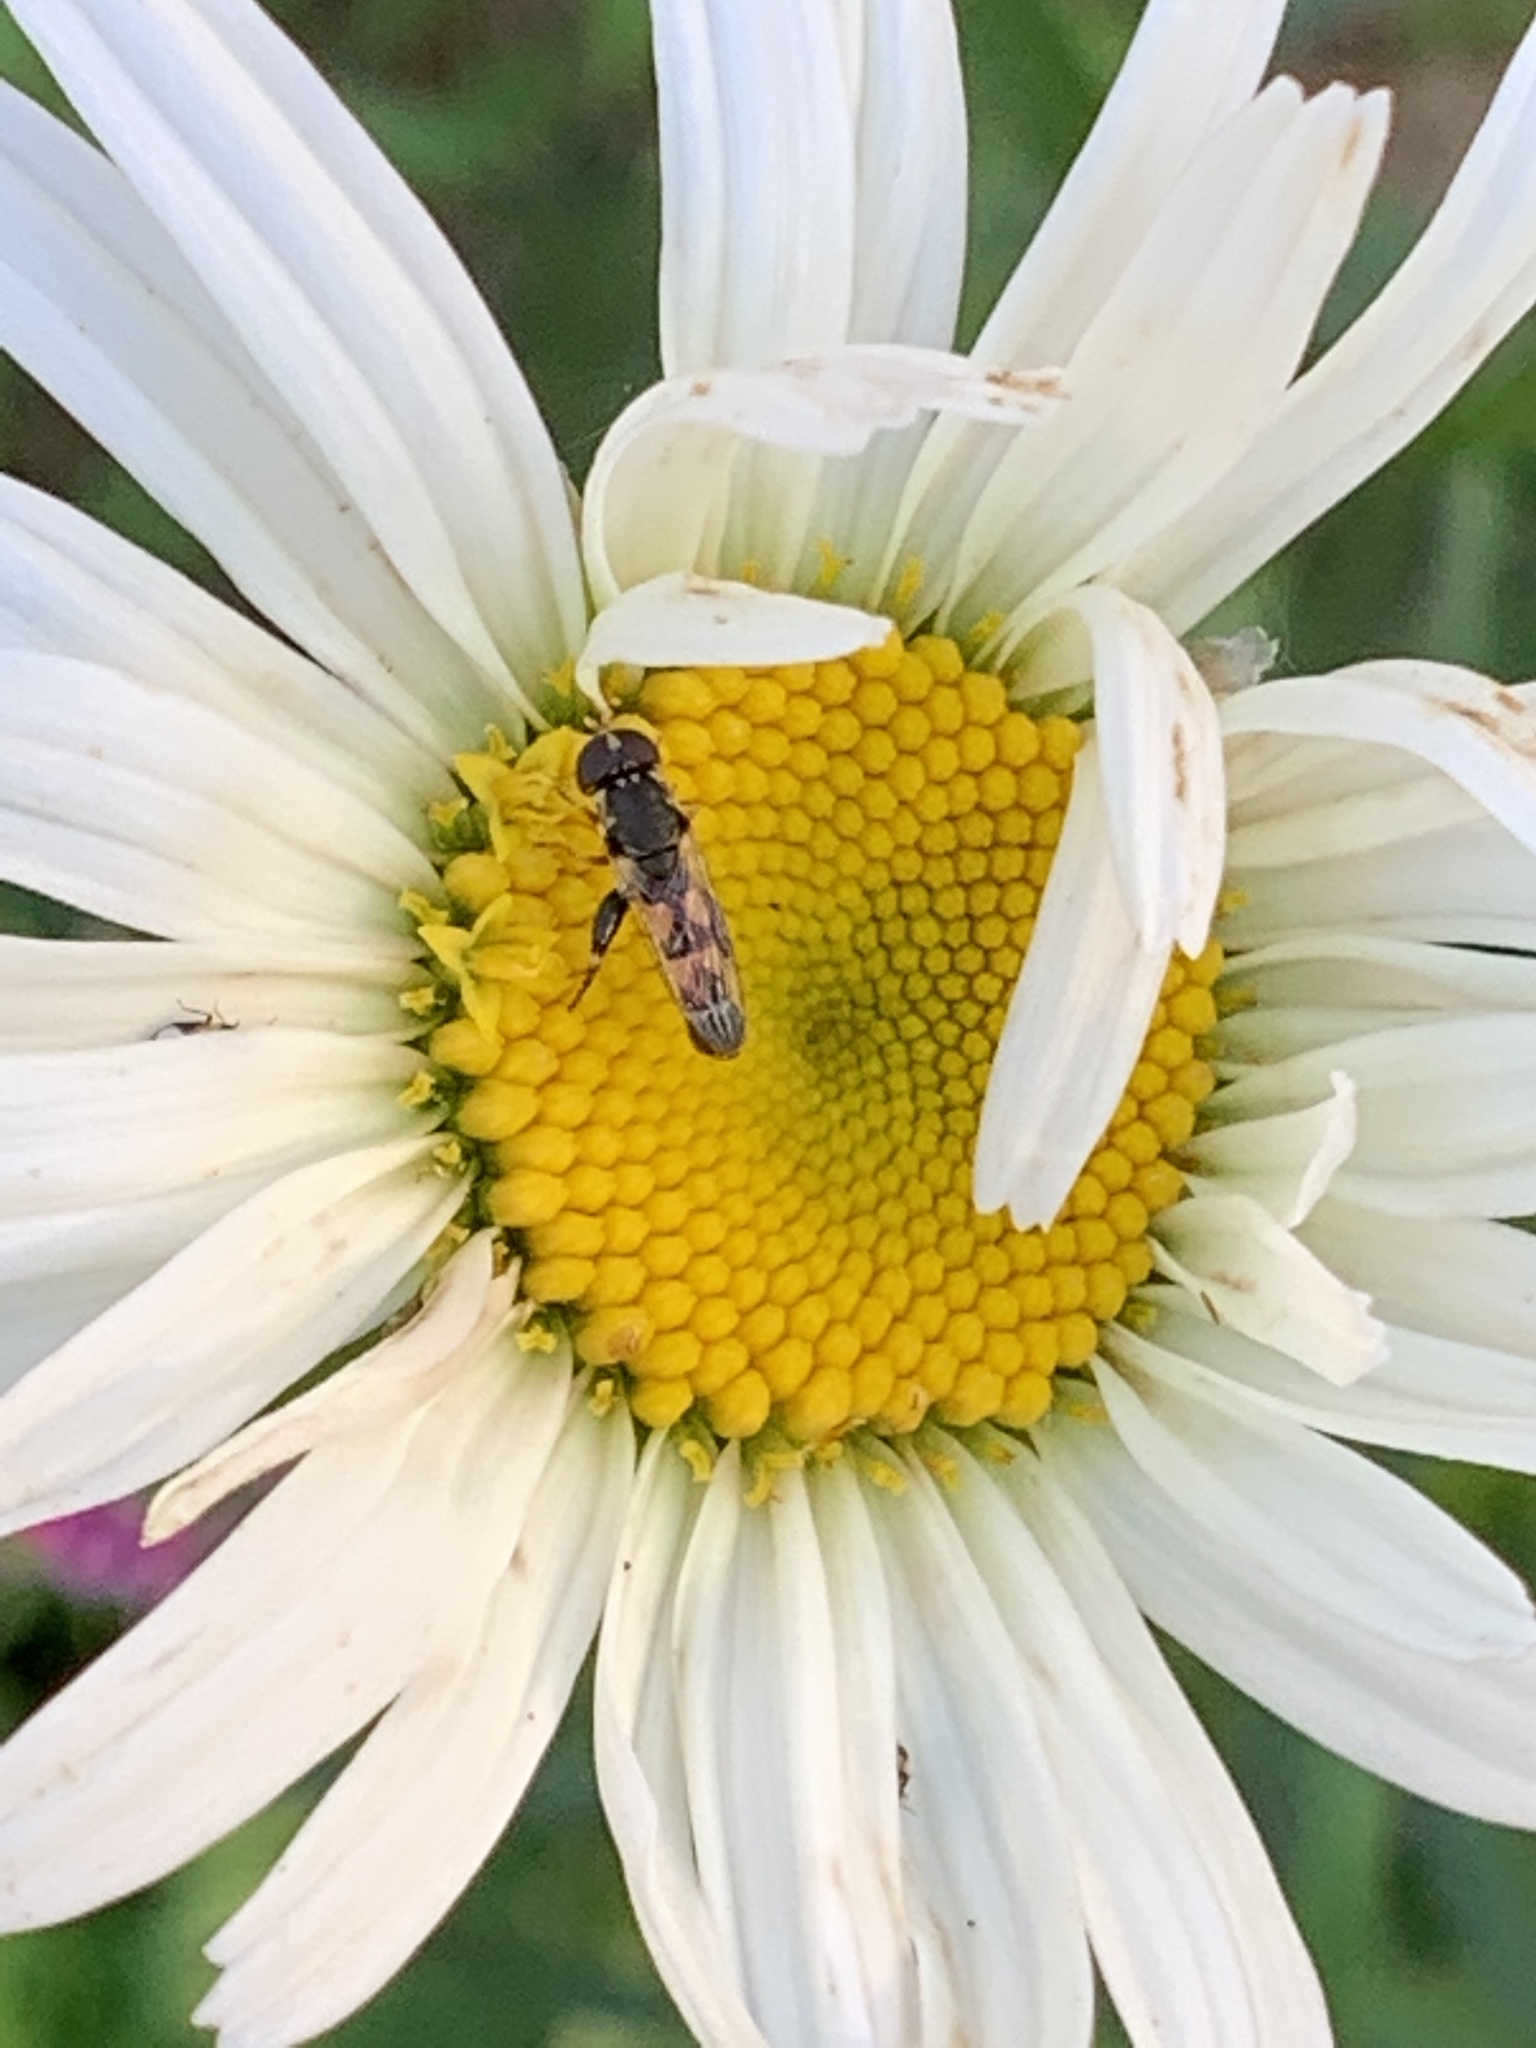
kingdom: Animalia
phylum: Arthropoda
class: Insecta
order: Diptera
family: Syrphidae
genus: Syritta
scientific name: Syritta pipiens
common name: Hover fly
